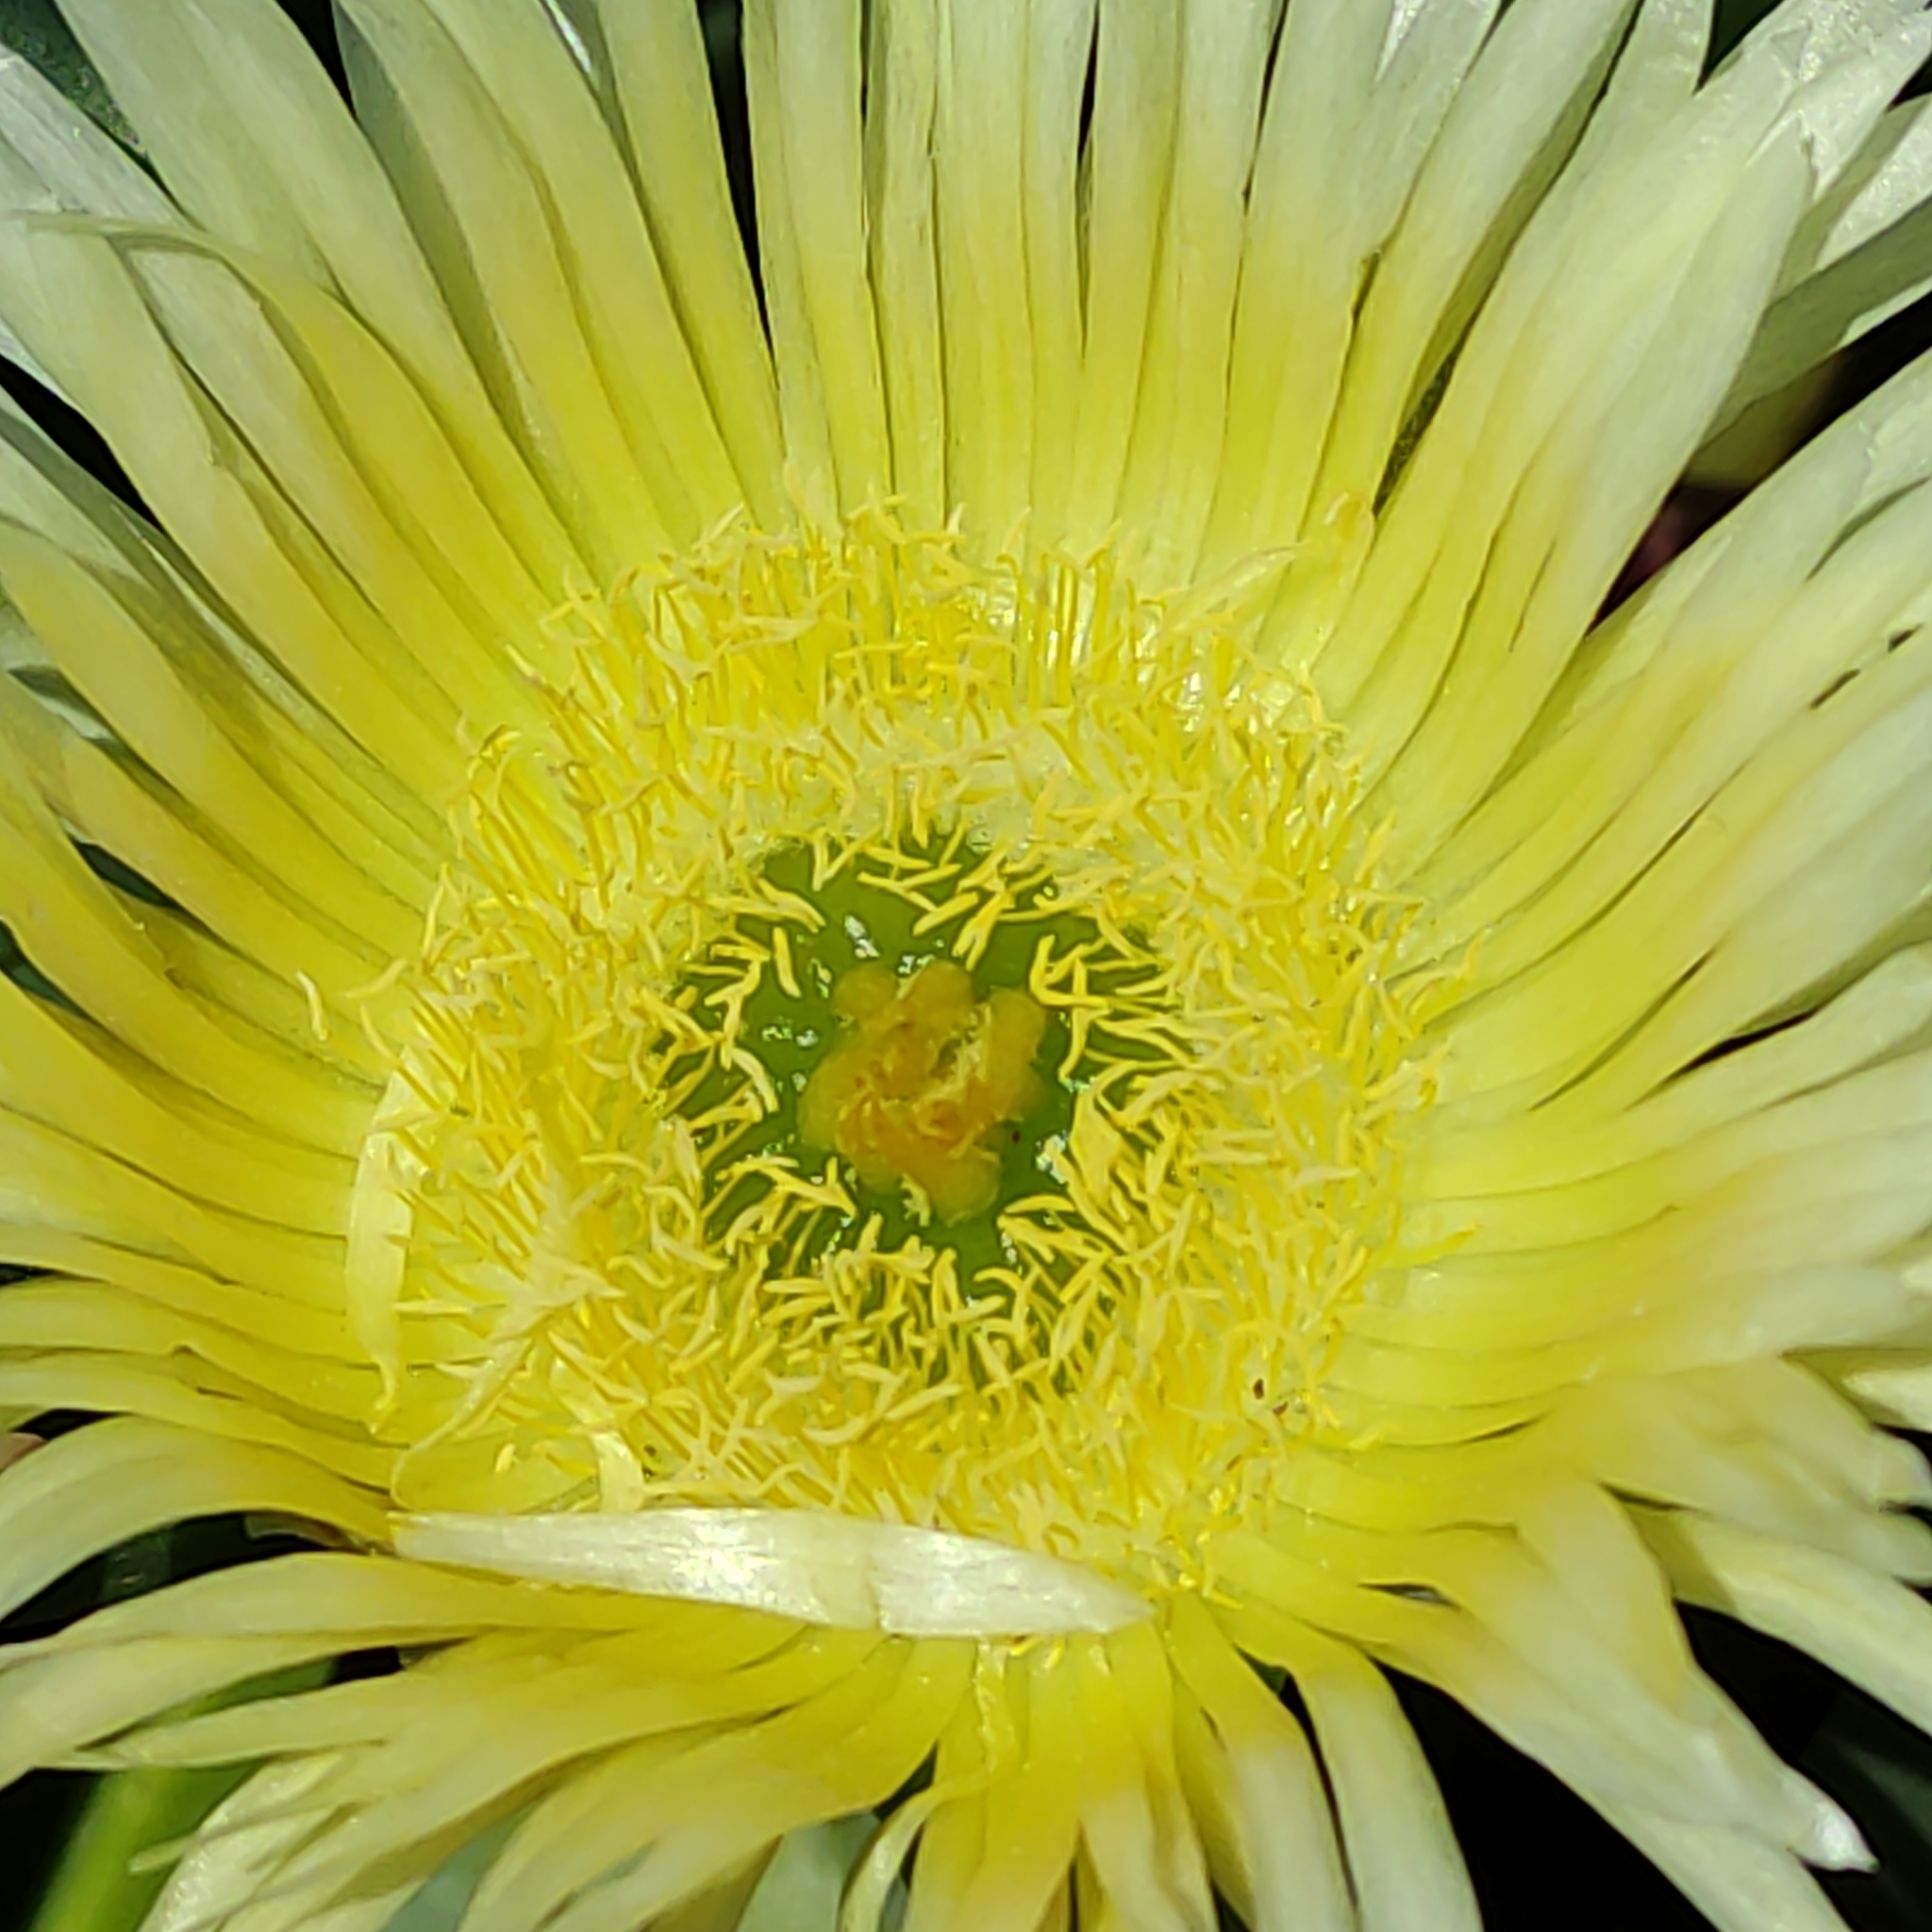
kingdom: Plantae
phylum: Tracheophyta
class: Magnoliopsida
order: Caryophyllales
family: Aizoaceae
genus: Carpobrotus
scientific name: Carpobrotus edulis
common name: Hottentot-fig
